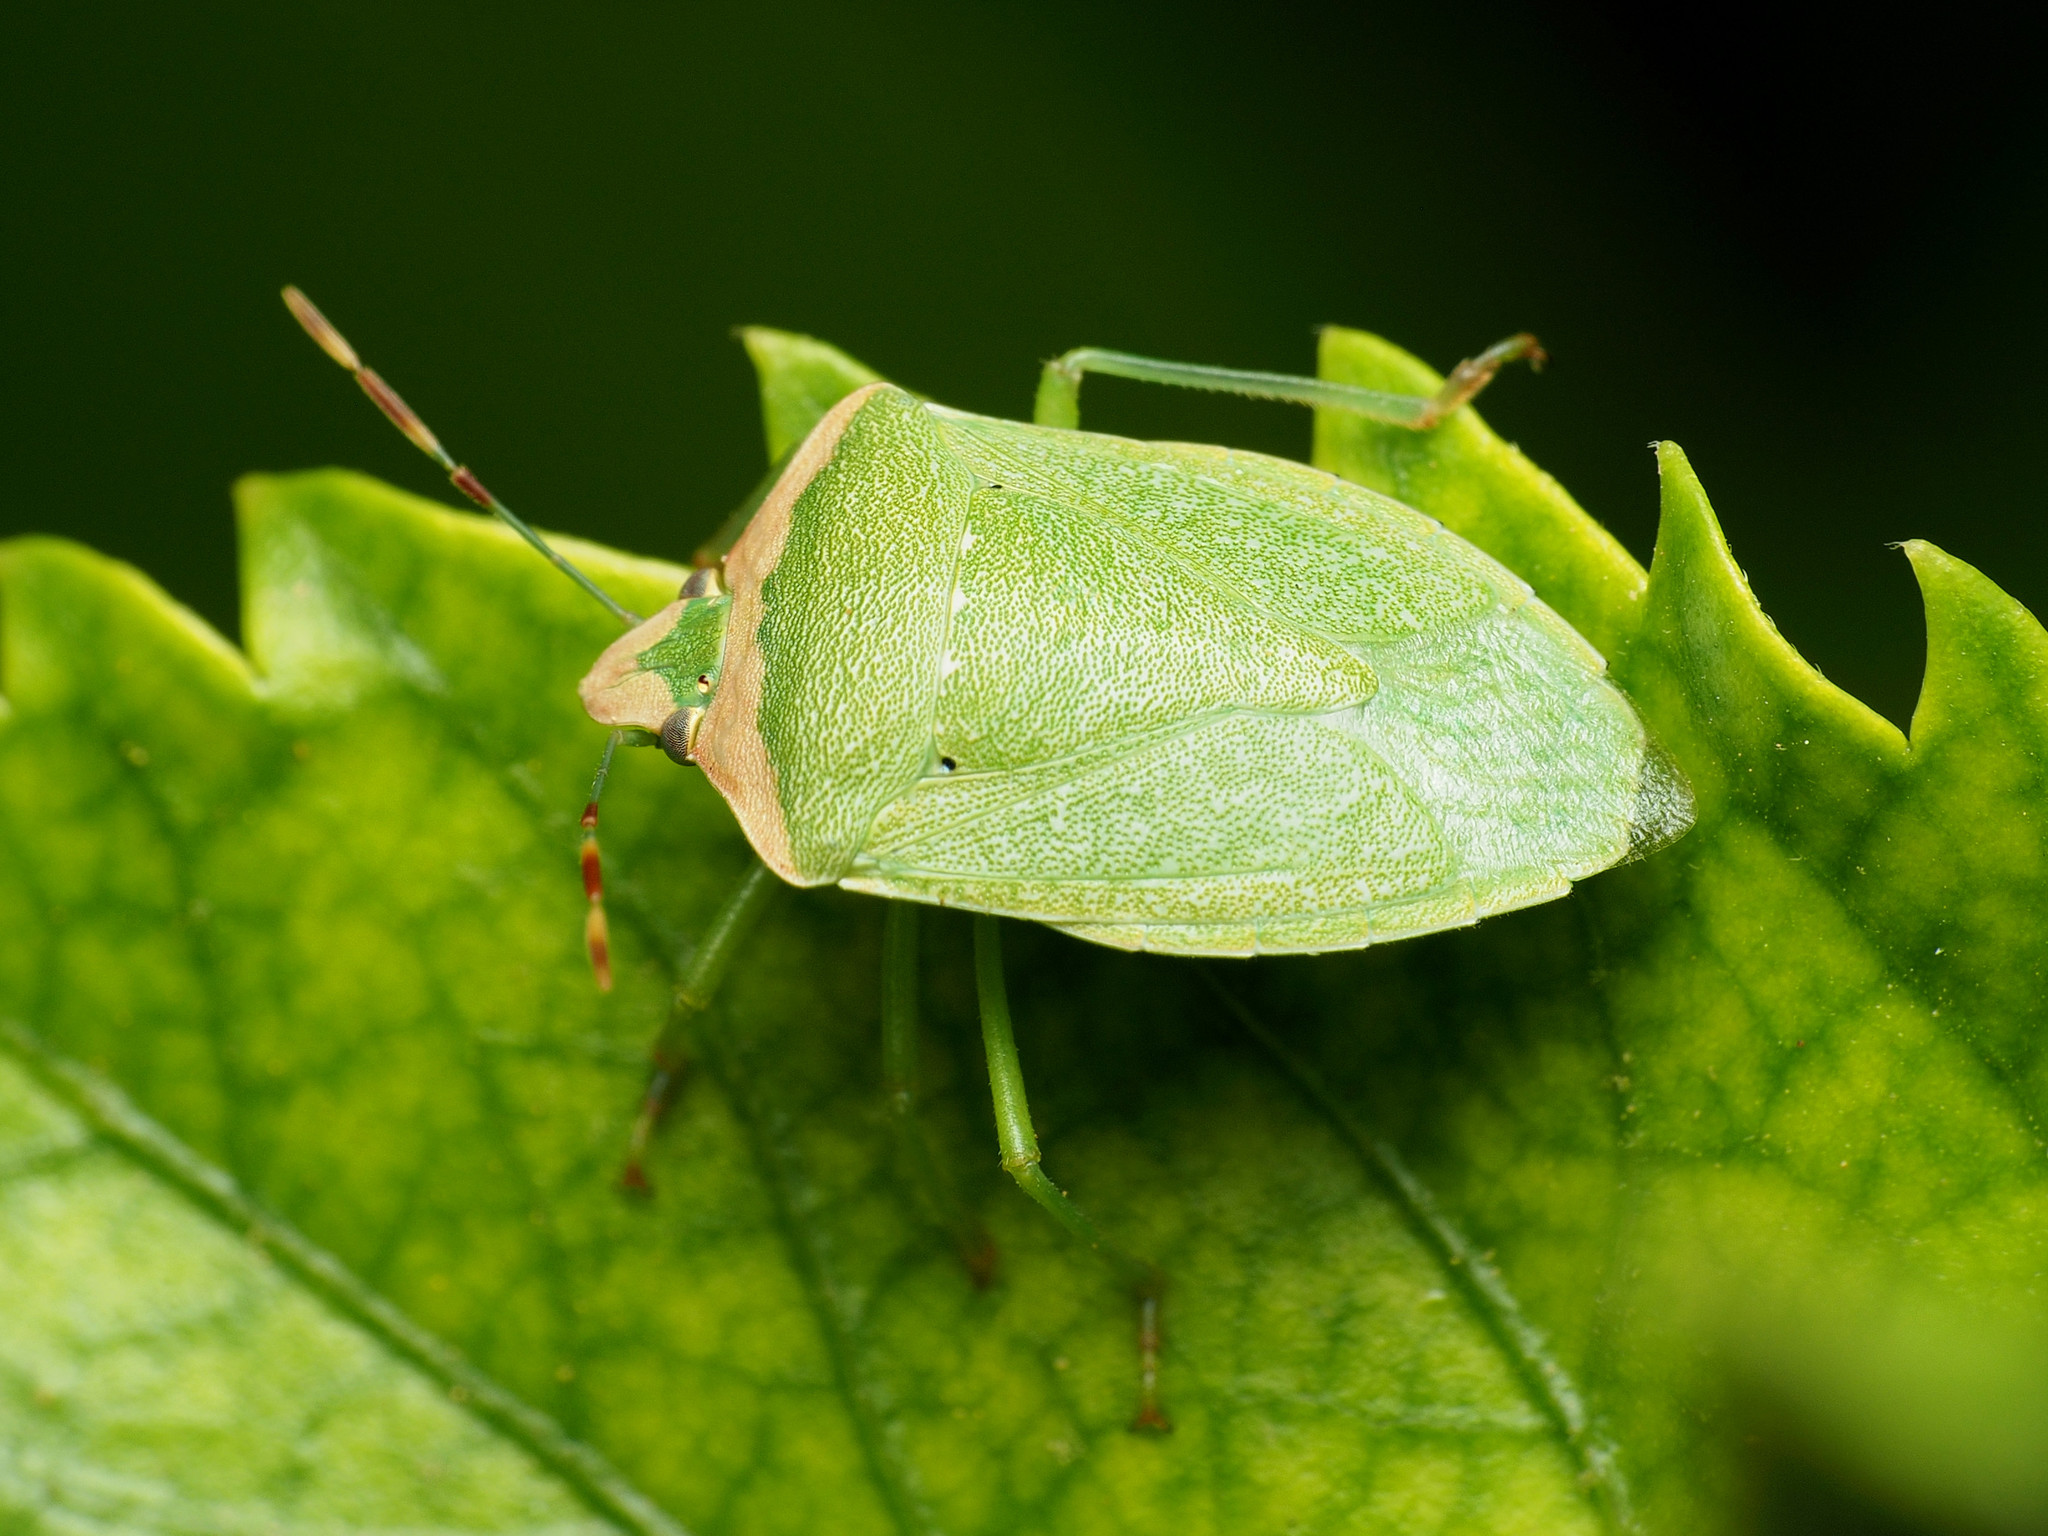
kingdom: Animalia
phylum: Arthropoda
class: Insecta
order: Hemiptera
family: Pentatomidae
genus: Nezara
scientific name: Nezara viridula
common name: Southern green stink bug
